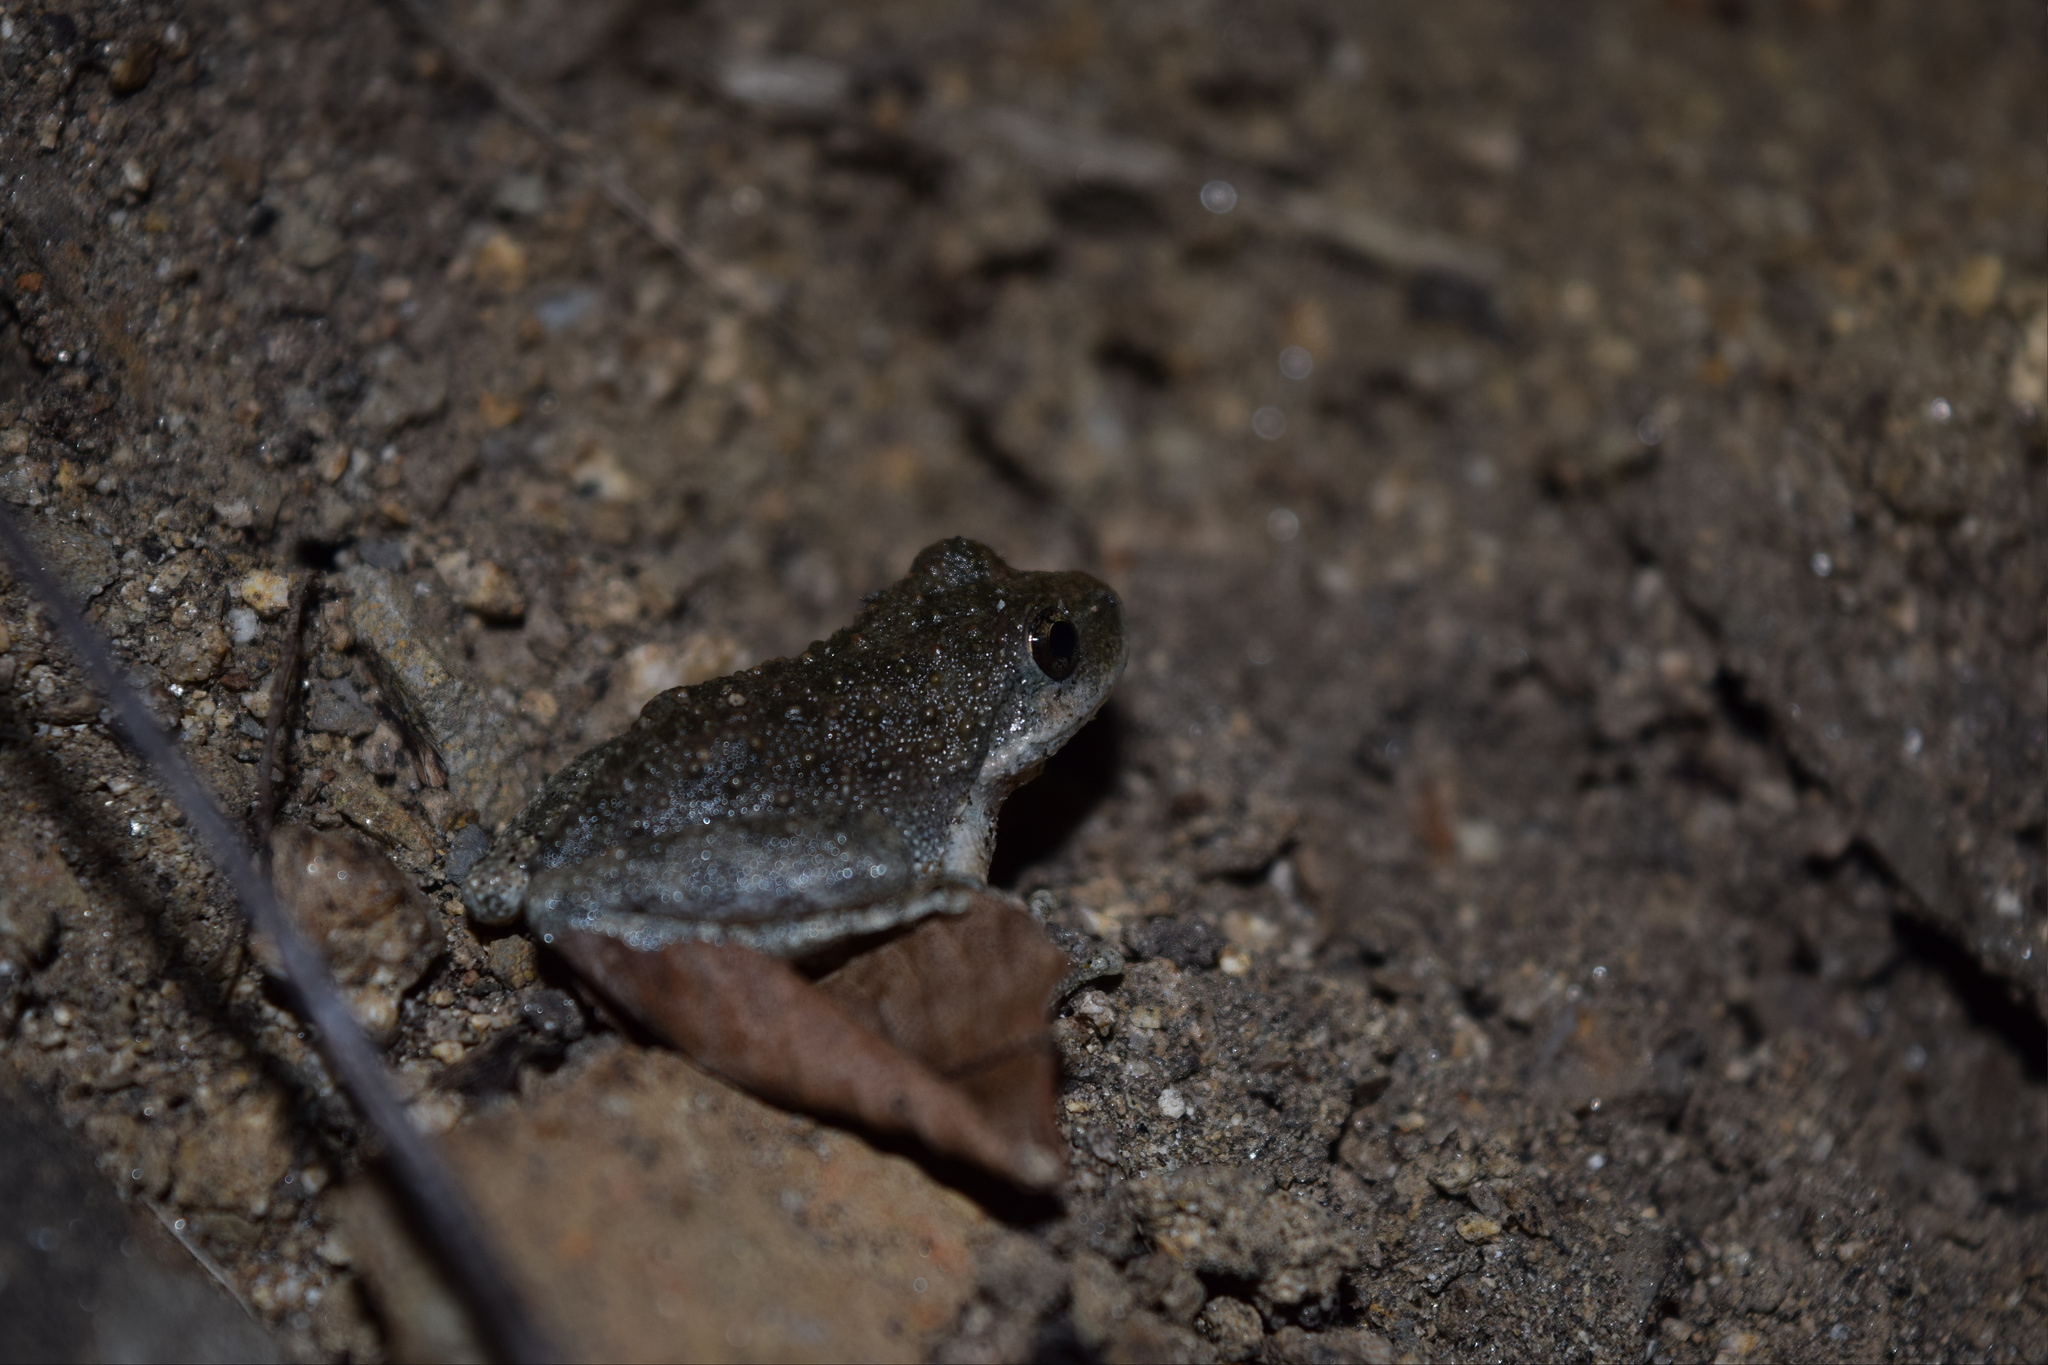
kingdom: Animalia
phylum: Chordata
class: Amphibia
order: Anura
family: Hylidae
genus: Pseudacris
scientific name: Pseudacris cadaverina
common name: California chorus frog
